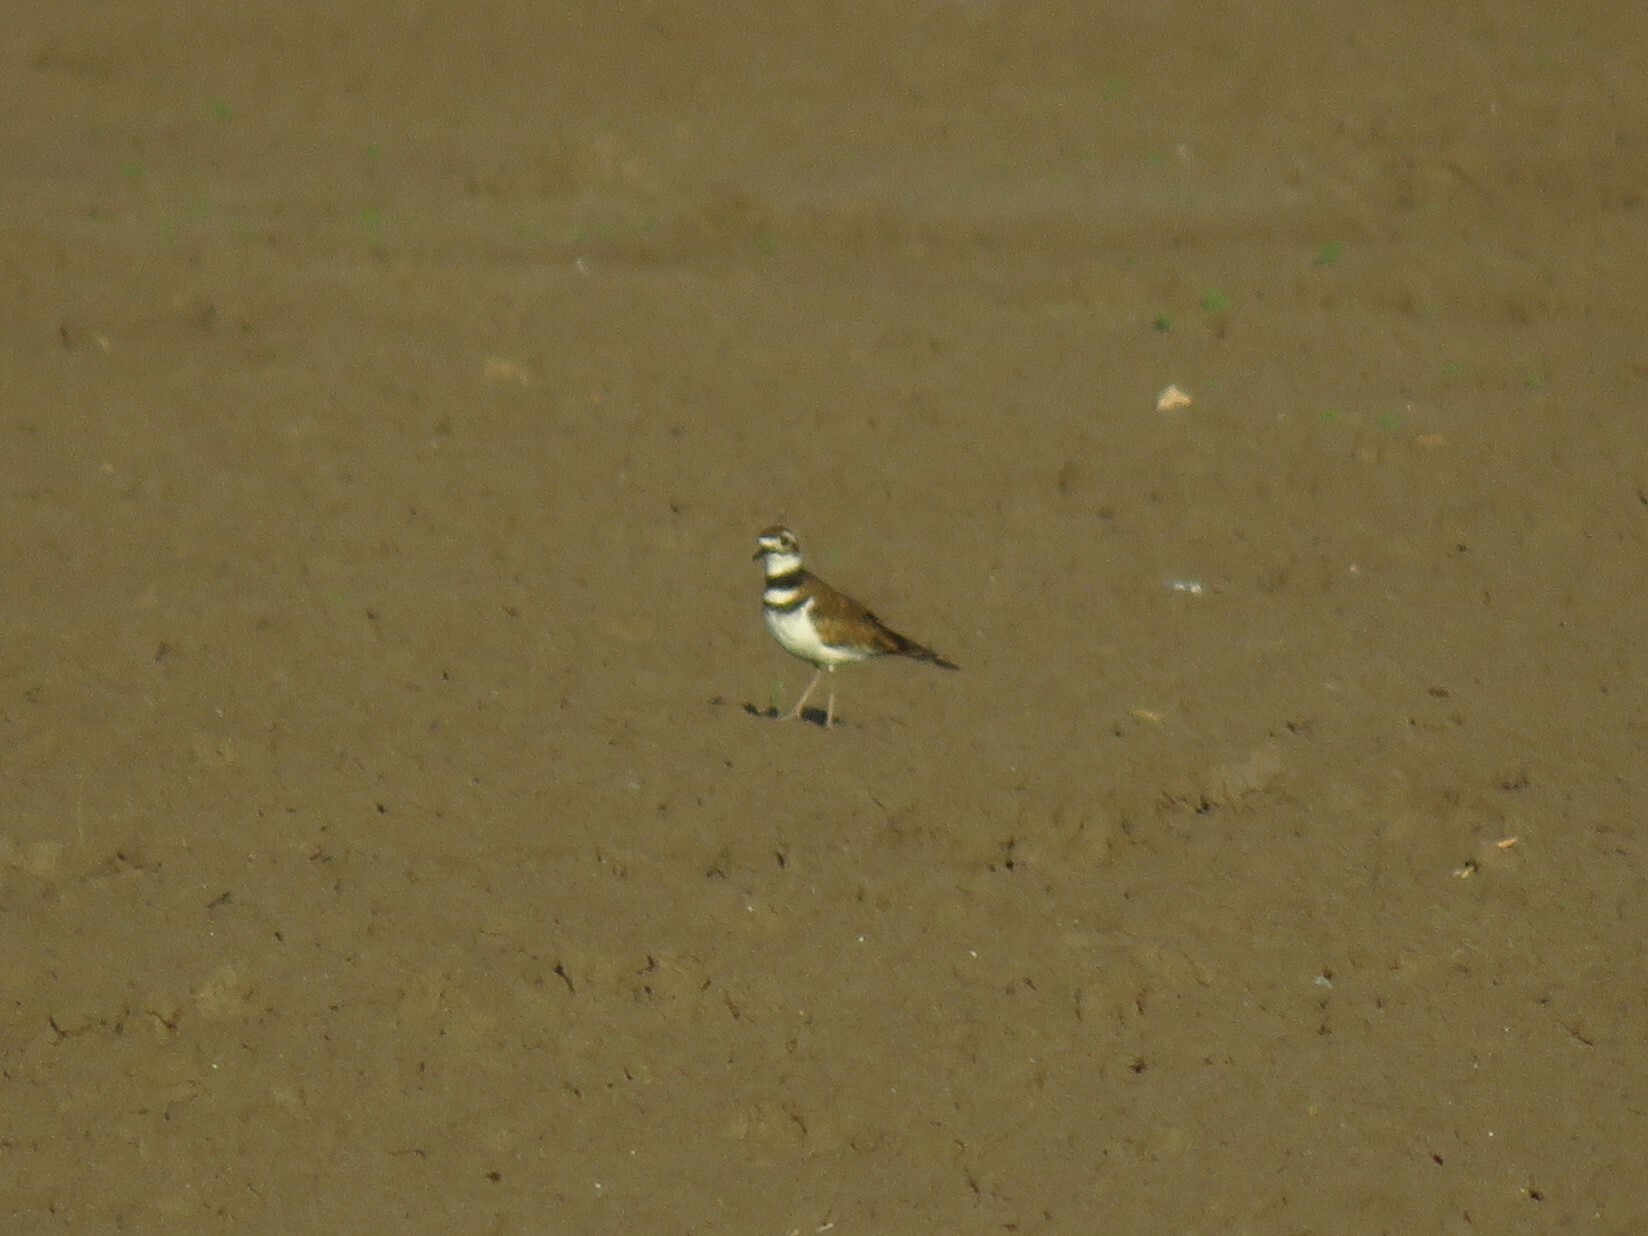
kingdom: Animalia
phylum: Chordata
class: Aves
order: Charadriiformes
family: Charadriidae
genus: Charadrius
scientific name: Charadrius vociferus
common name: Killdeer
